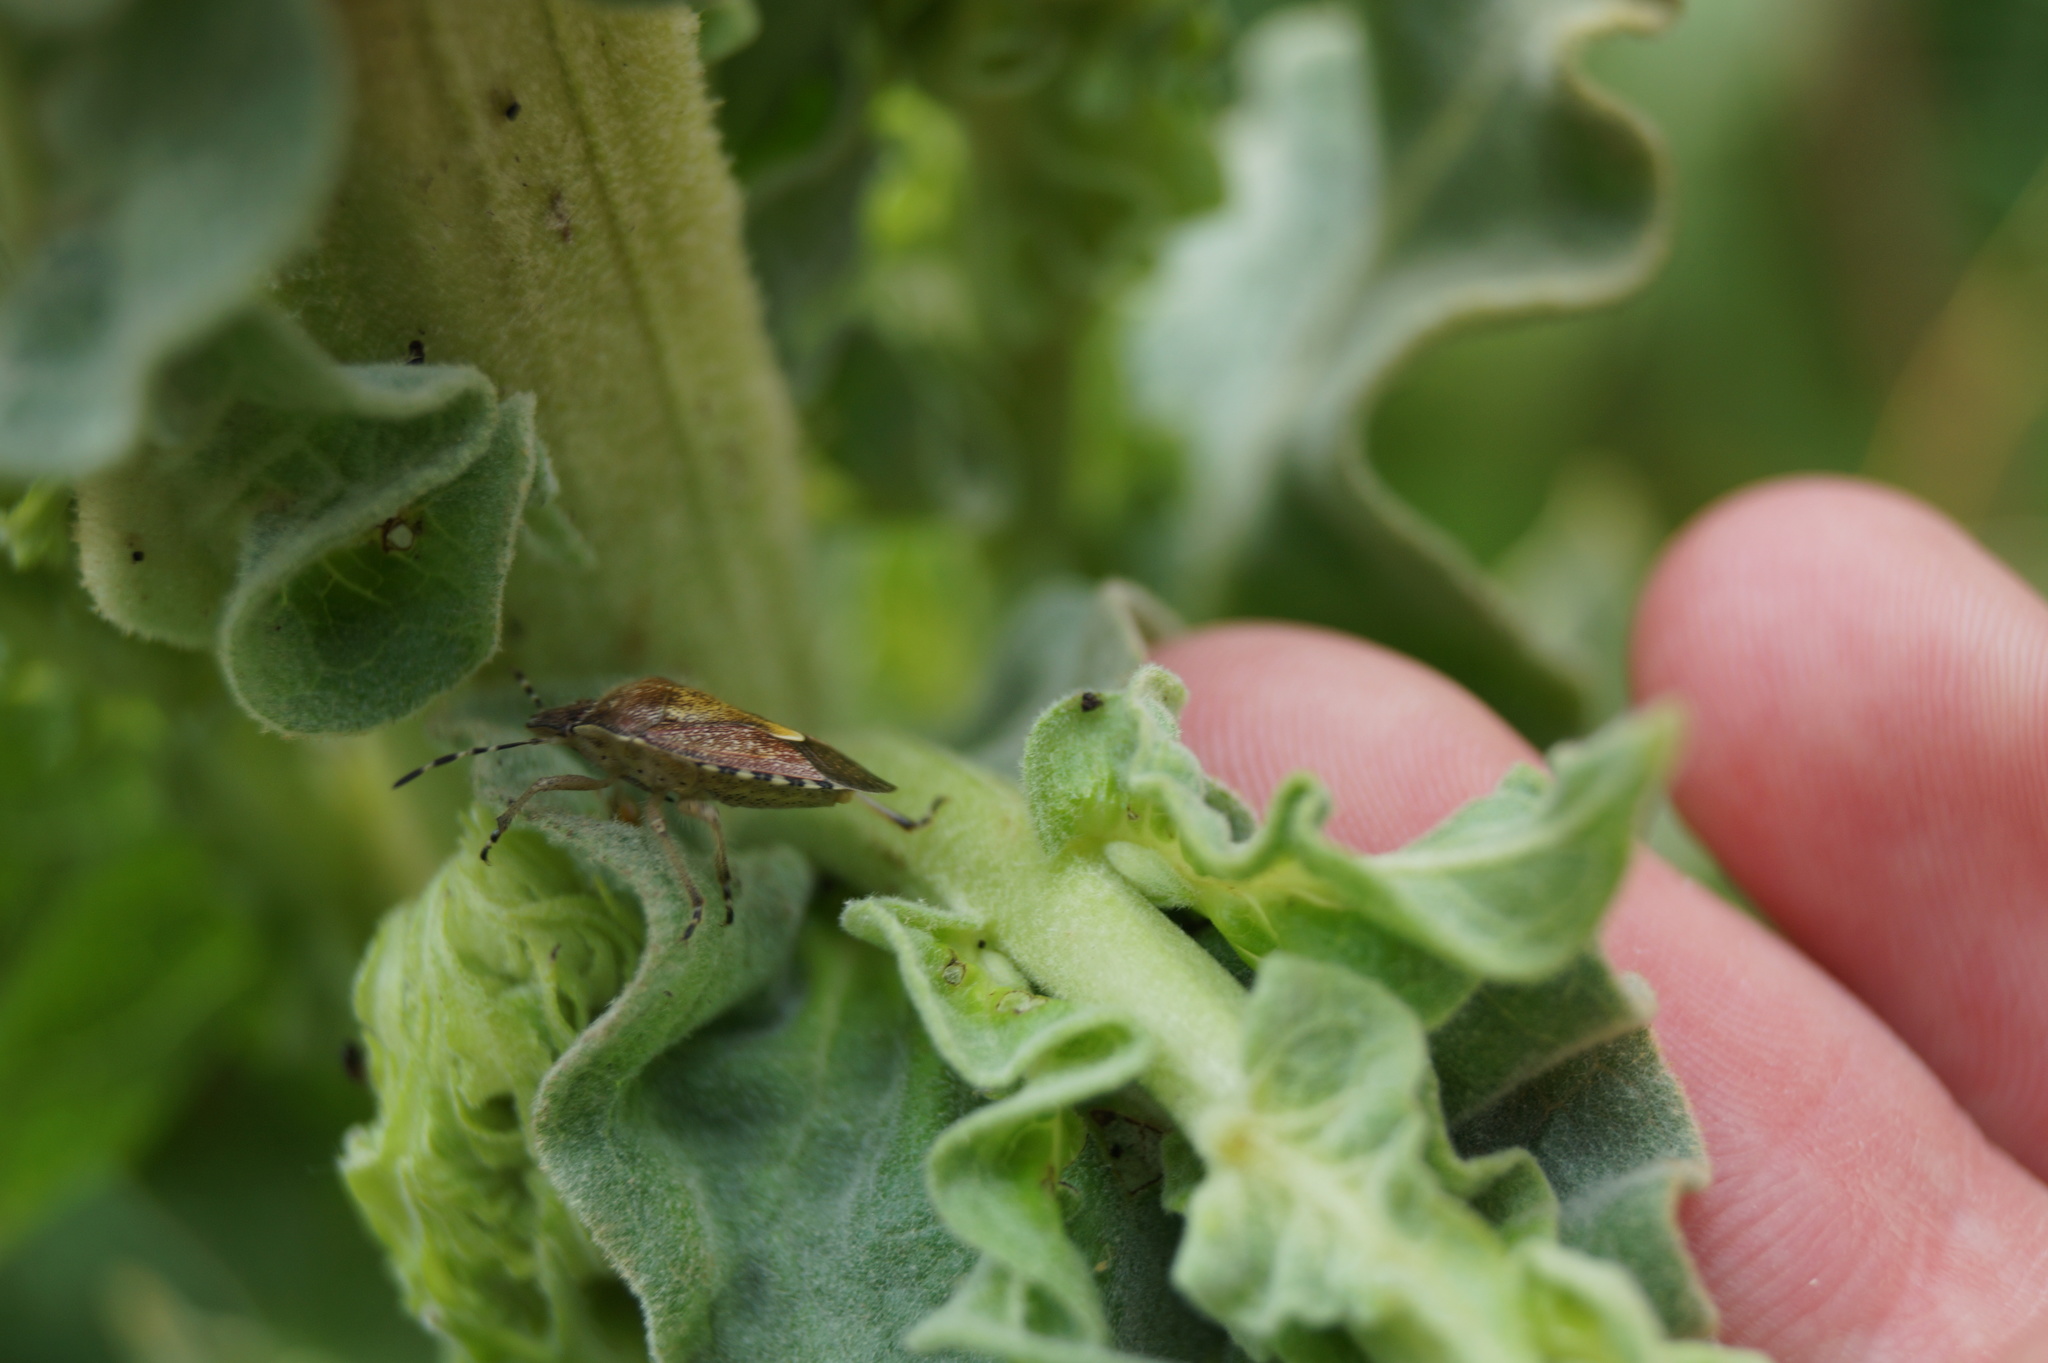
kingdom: Animalia
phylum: Arthropoda
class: Insecta
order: Hemiptera
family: Pentatomidae
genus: Dolycoris
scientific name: Dolycoris baccarum
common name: Sloe bug
